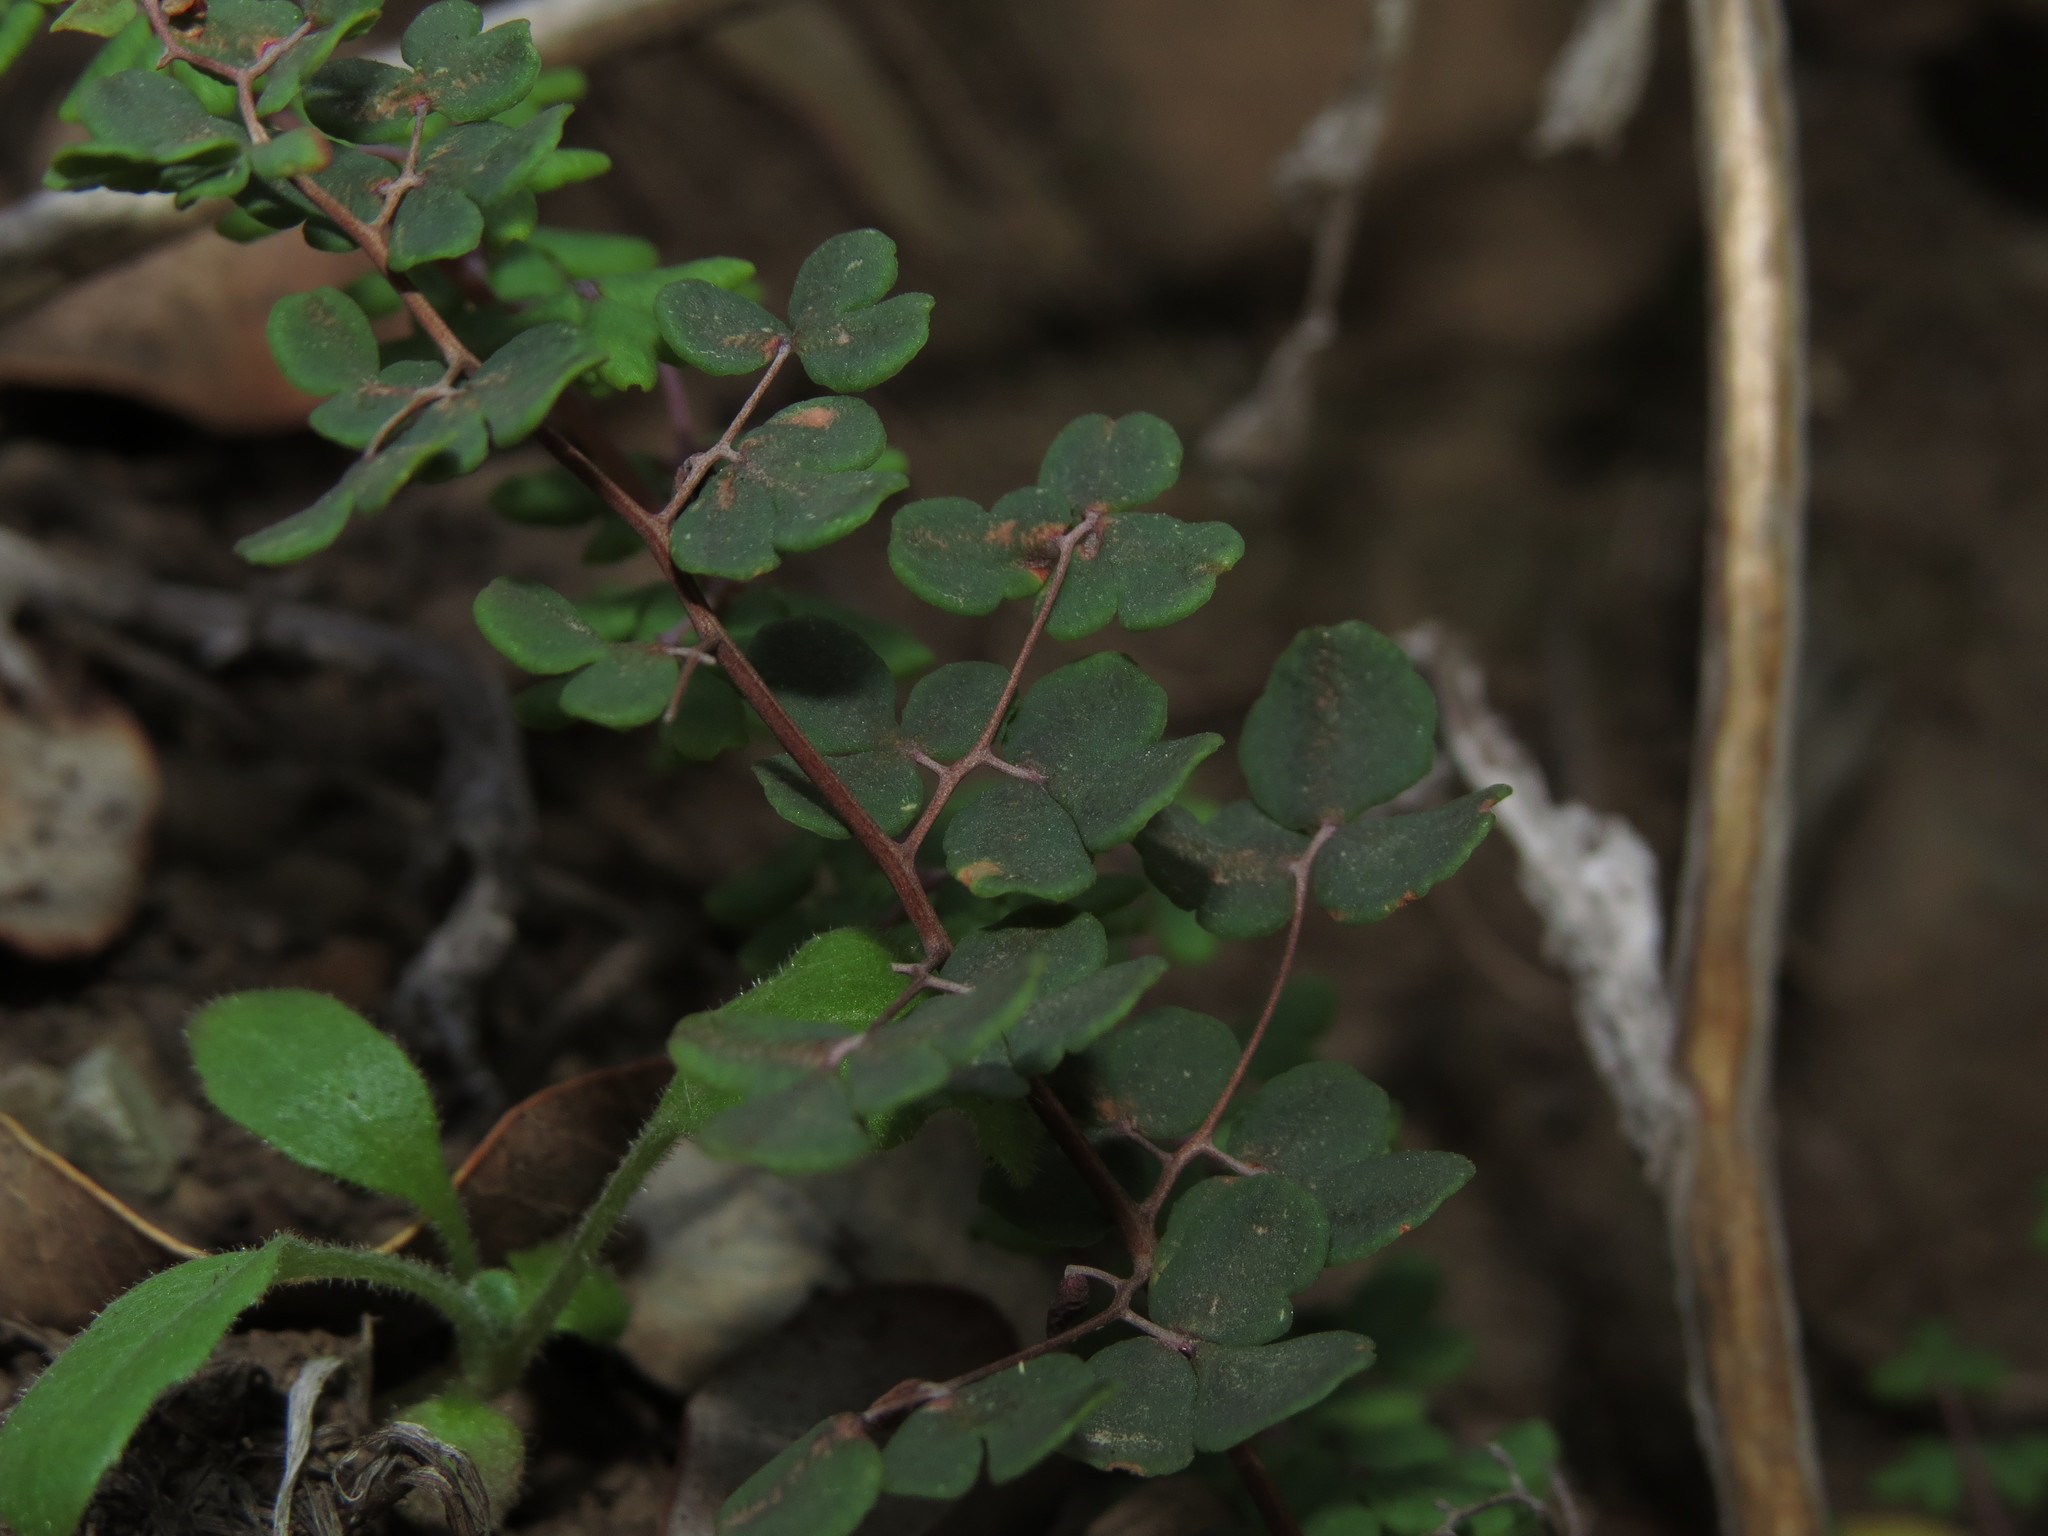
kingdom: Plantae
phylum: Tracheophyta
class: Polypodiopsida
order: Polypodiales
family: Pteridaceae
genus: Pellaea
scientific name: Pellaea myrtillifolia
